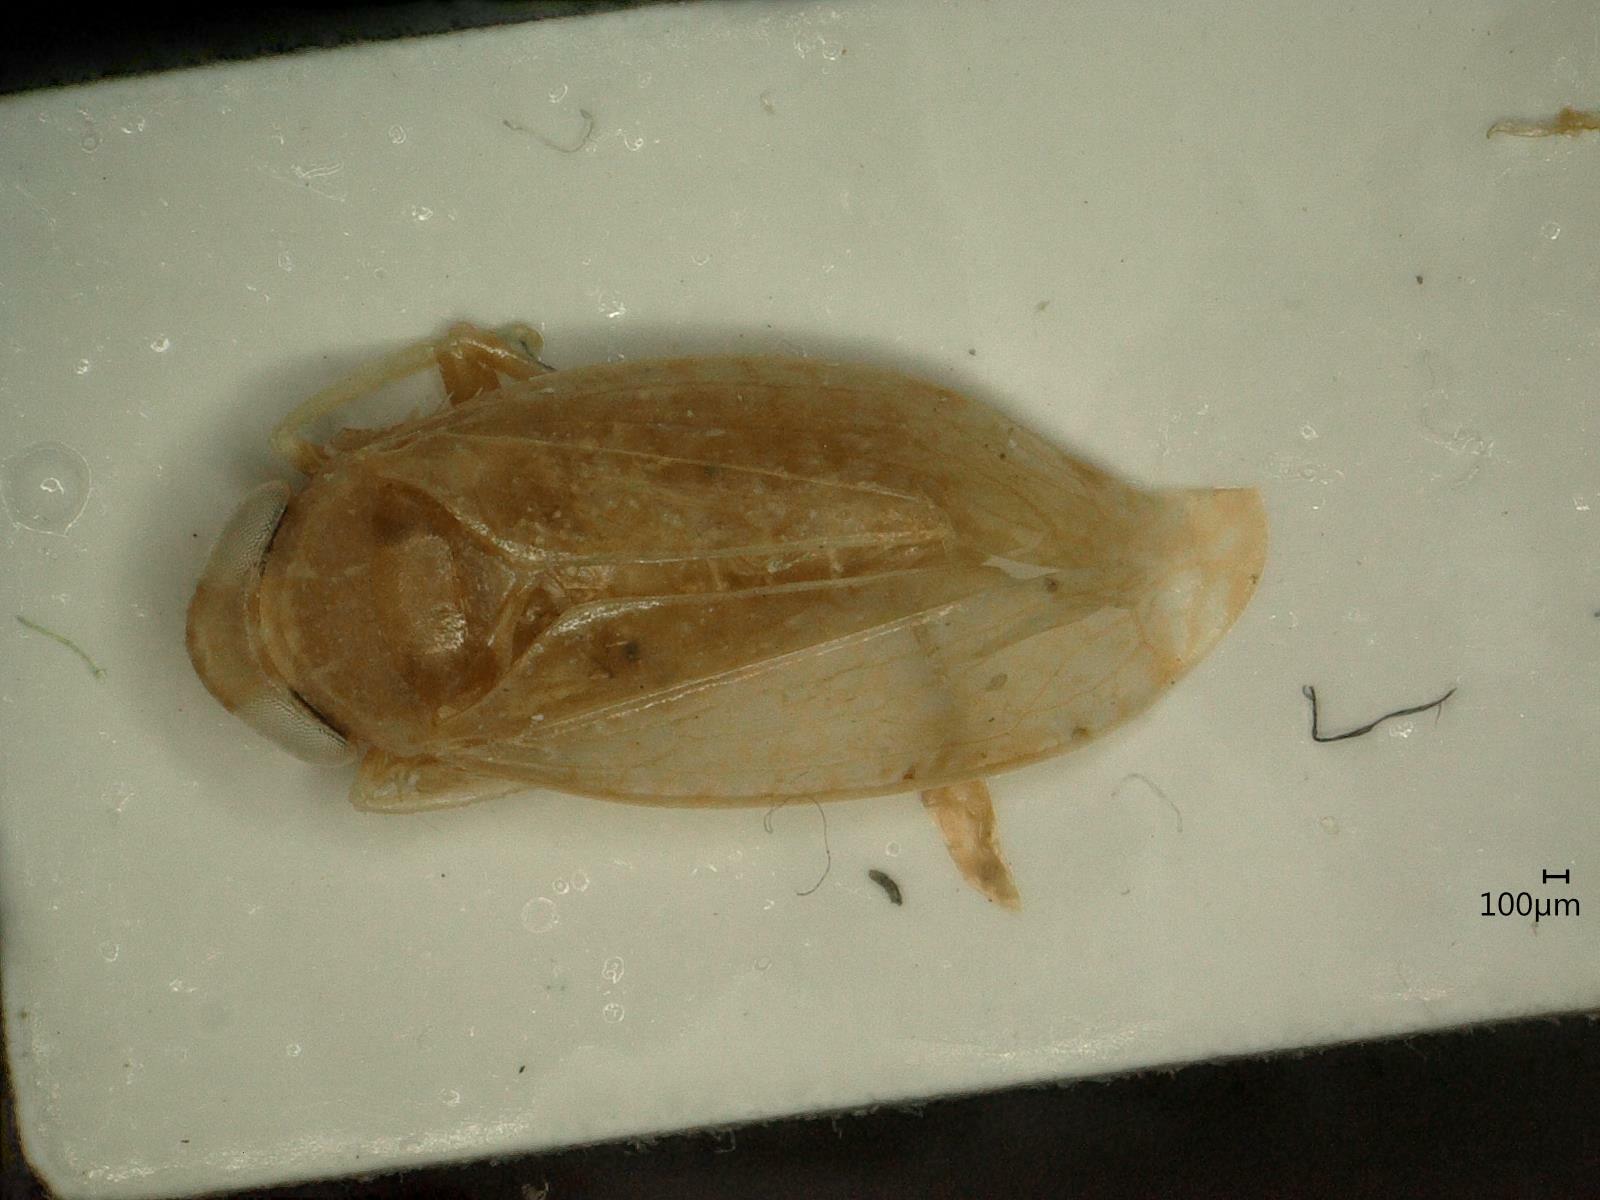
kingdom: Animalia
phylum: Arthropoda
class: Insecta
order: Hemiptera
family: Cicadellidae
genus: Orientus
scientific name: Orientus ishidae
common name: Japanese leafhopper
